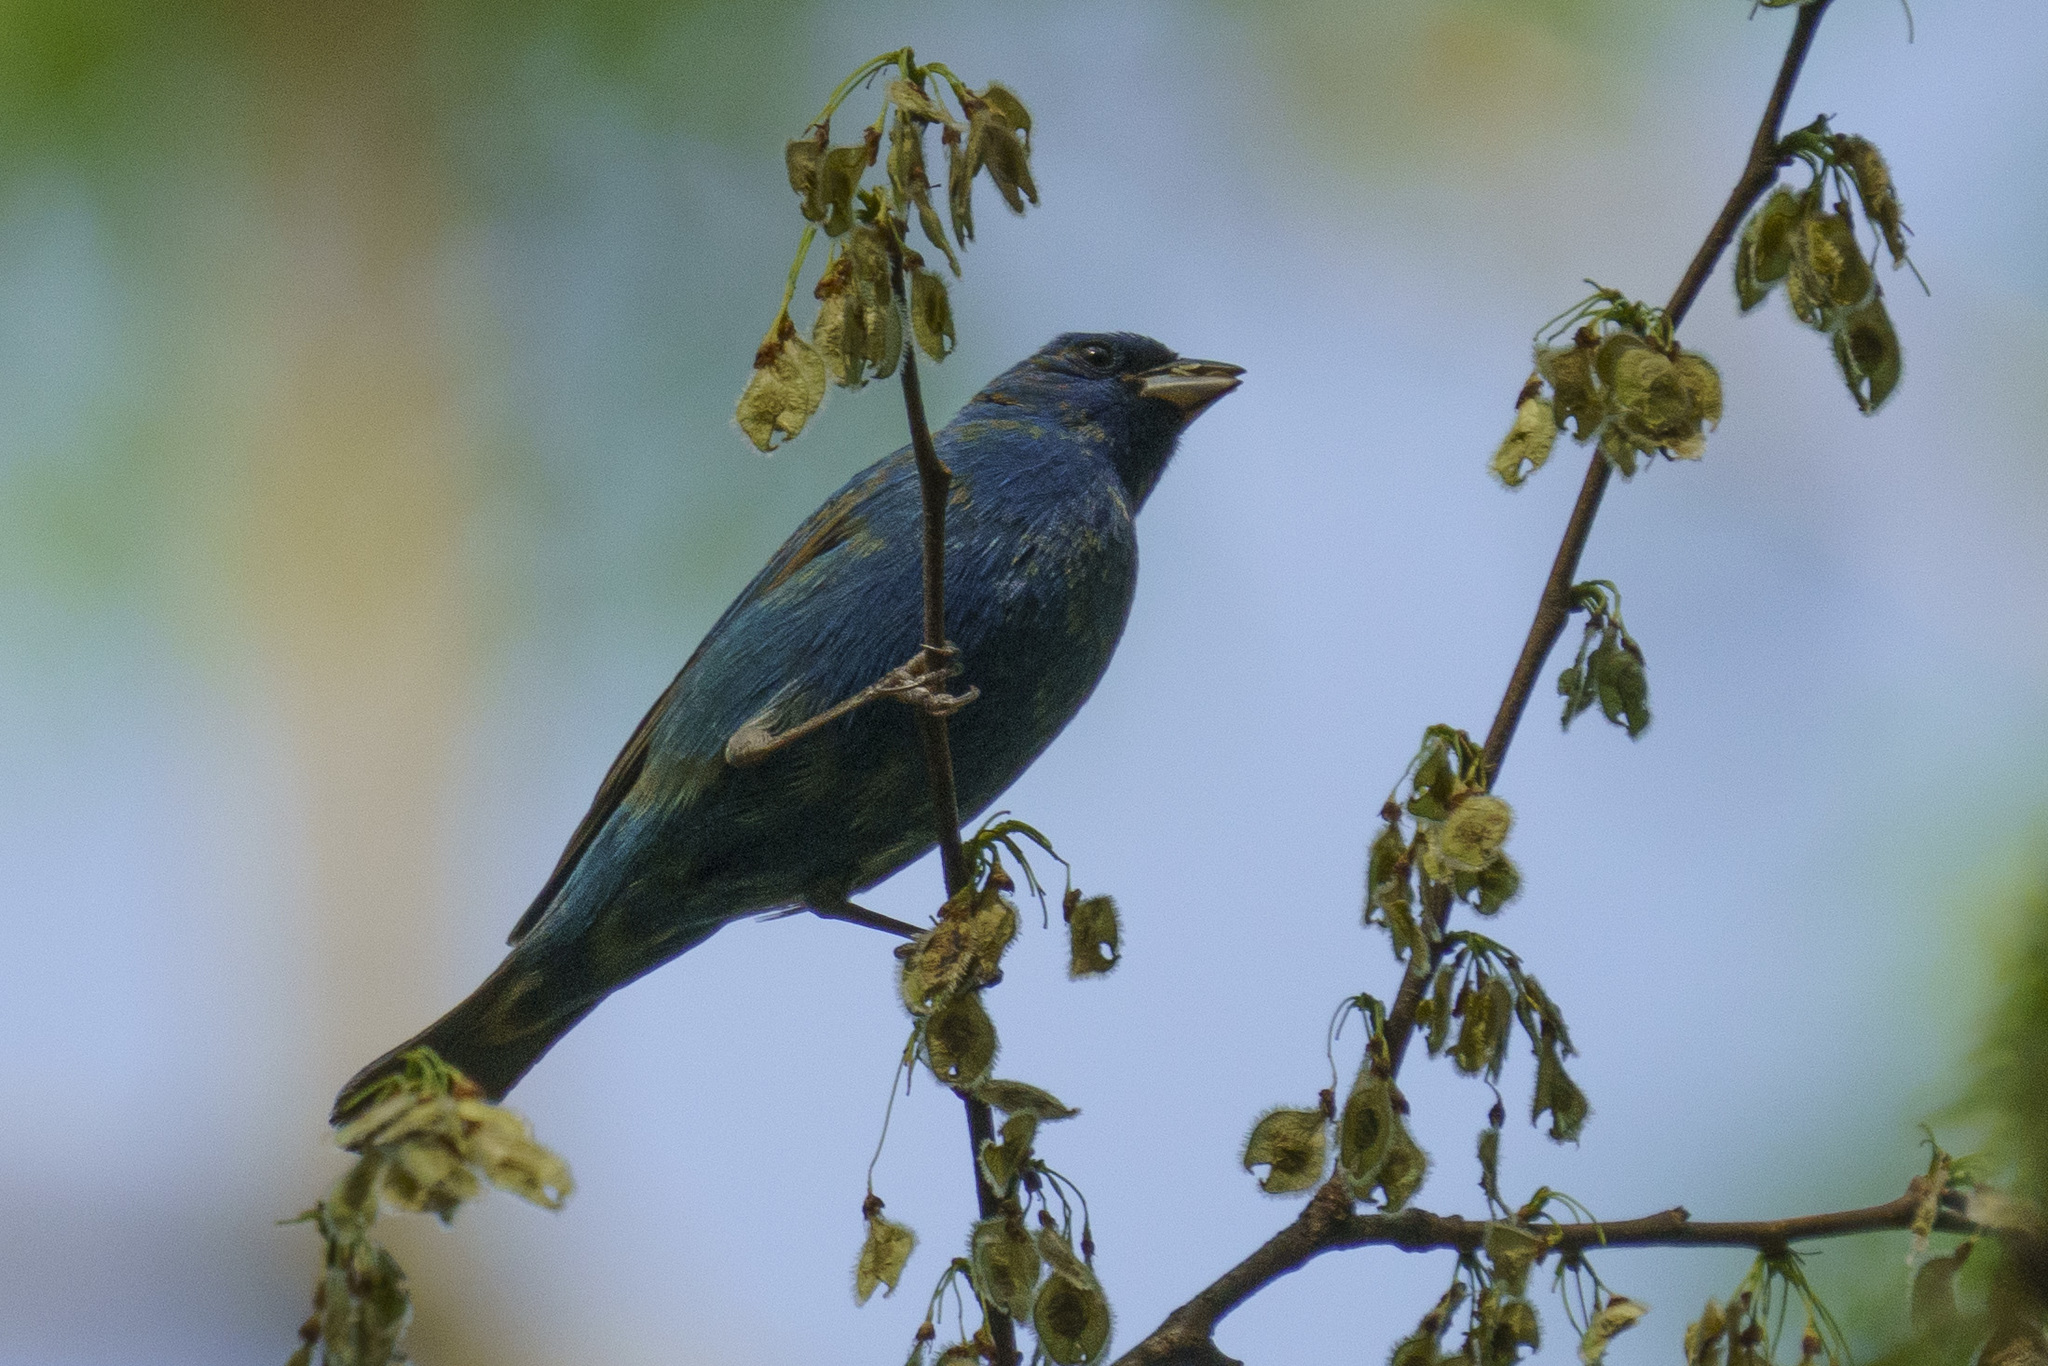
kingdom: Animalia
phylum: Chordata
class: Aves
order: Passeriformes
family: Cardinalidae
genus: Passerina
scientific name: Passerina cyanea
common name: Indigo bunting
